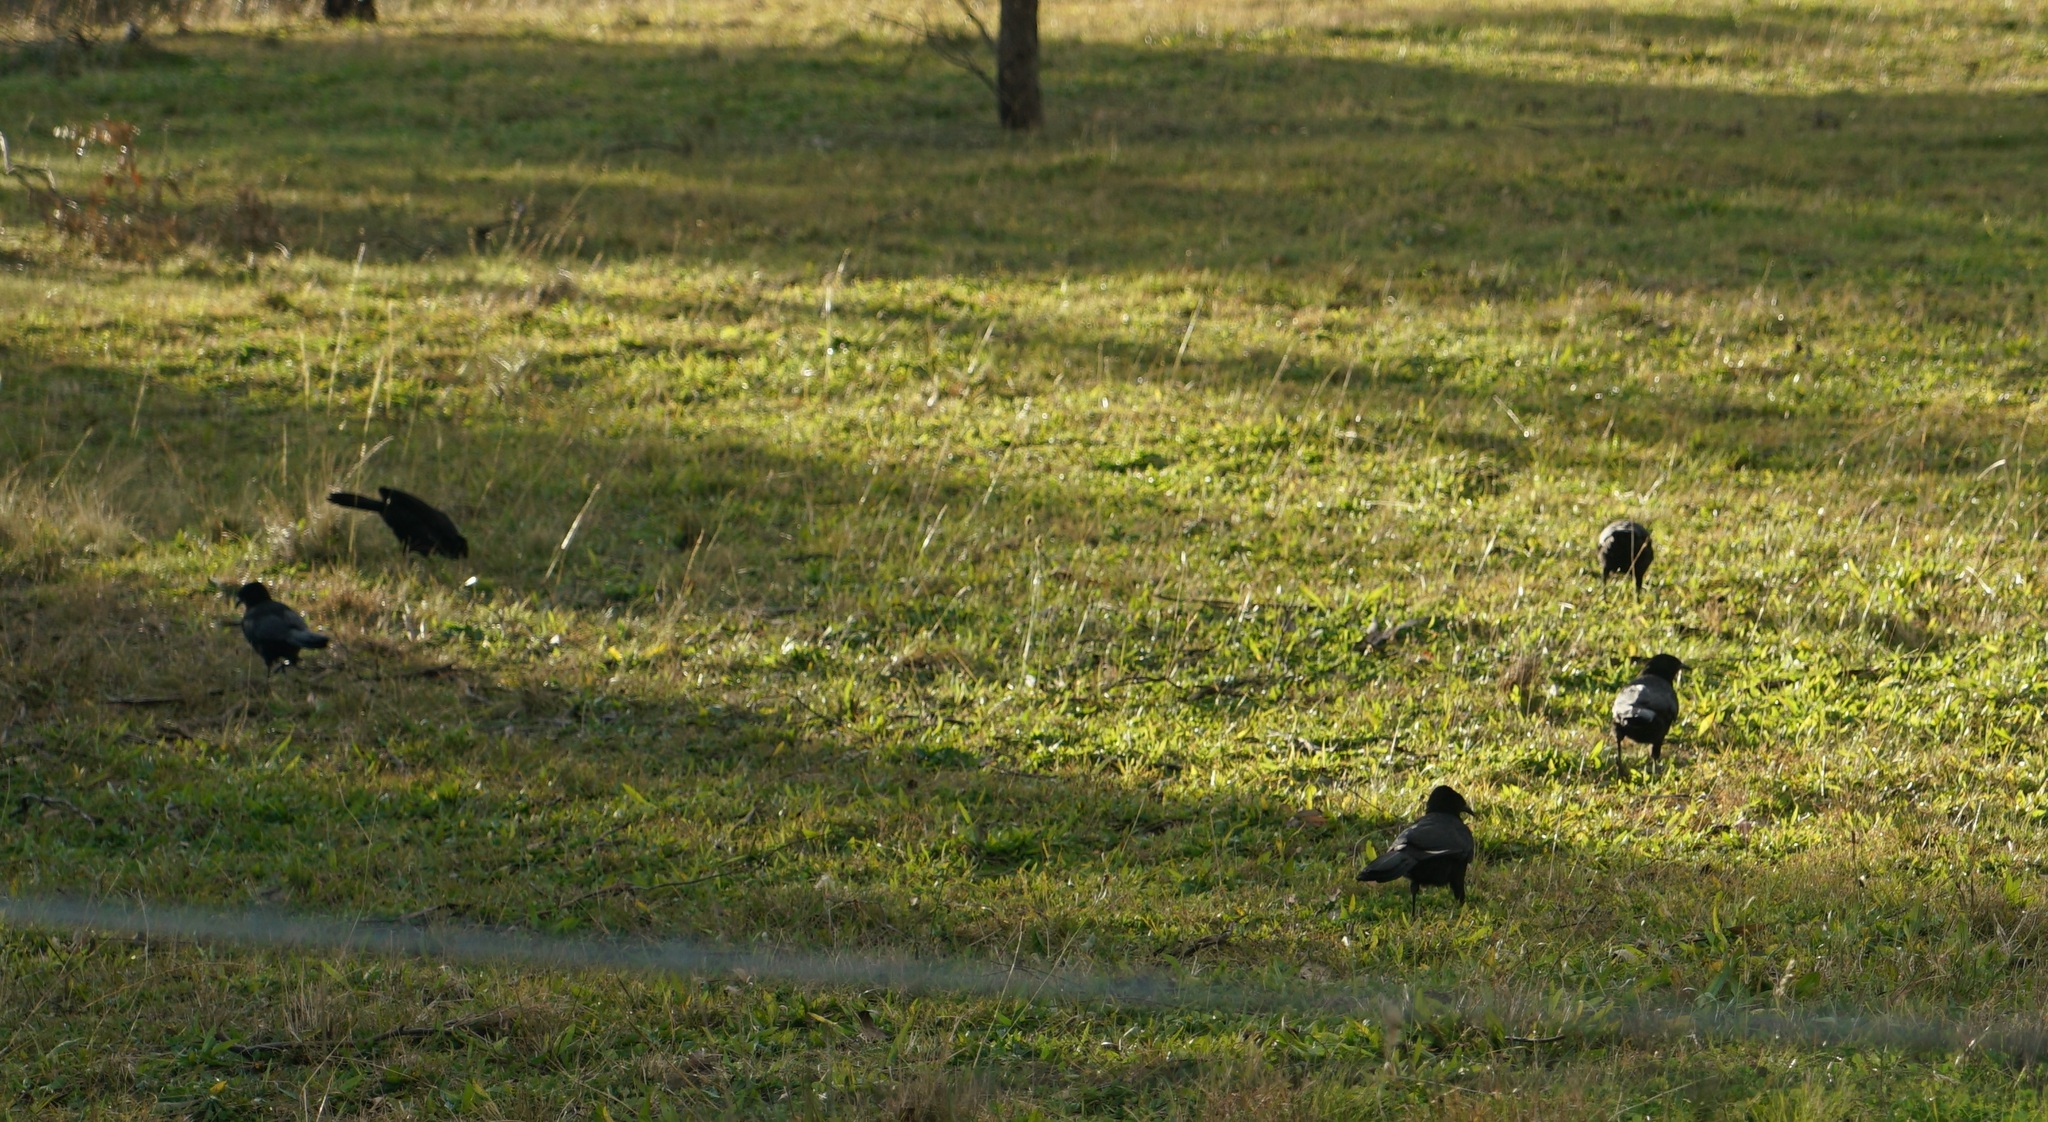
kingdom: Animalia
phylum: Chordata
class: Aves
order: Passeriformes
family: Corcoracidae
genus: Corcorax
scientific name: Corcorax melanoramphos
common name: White-winged chough
